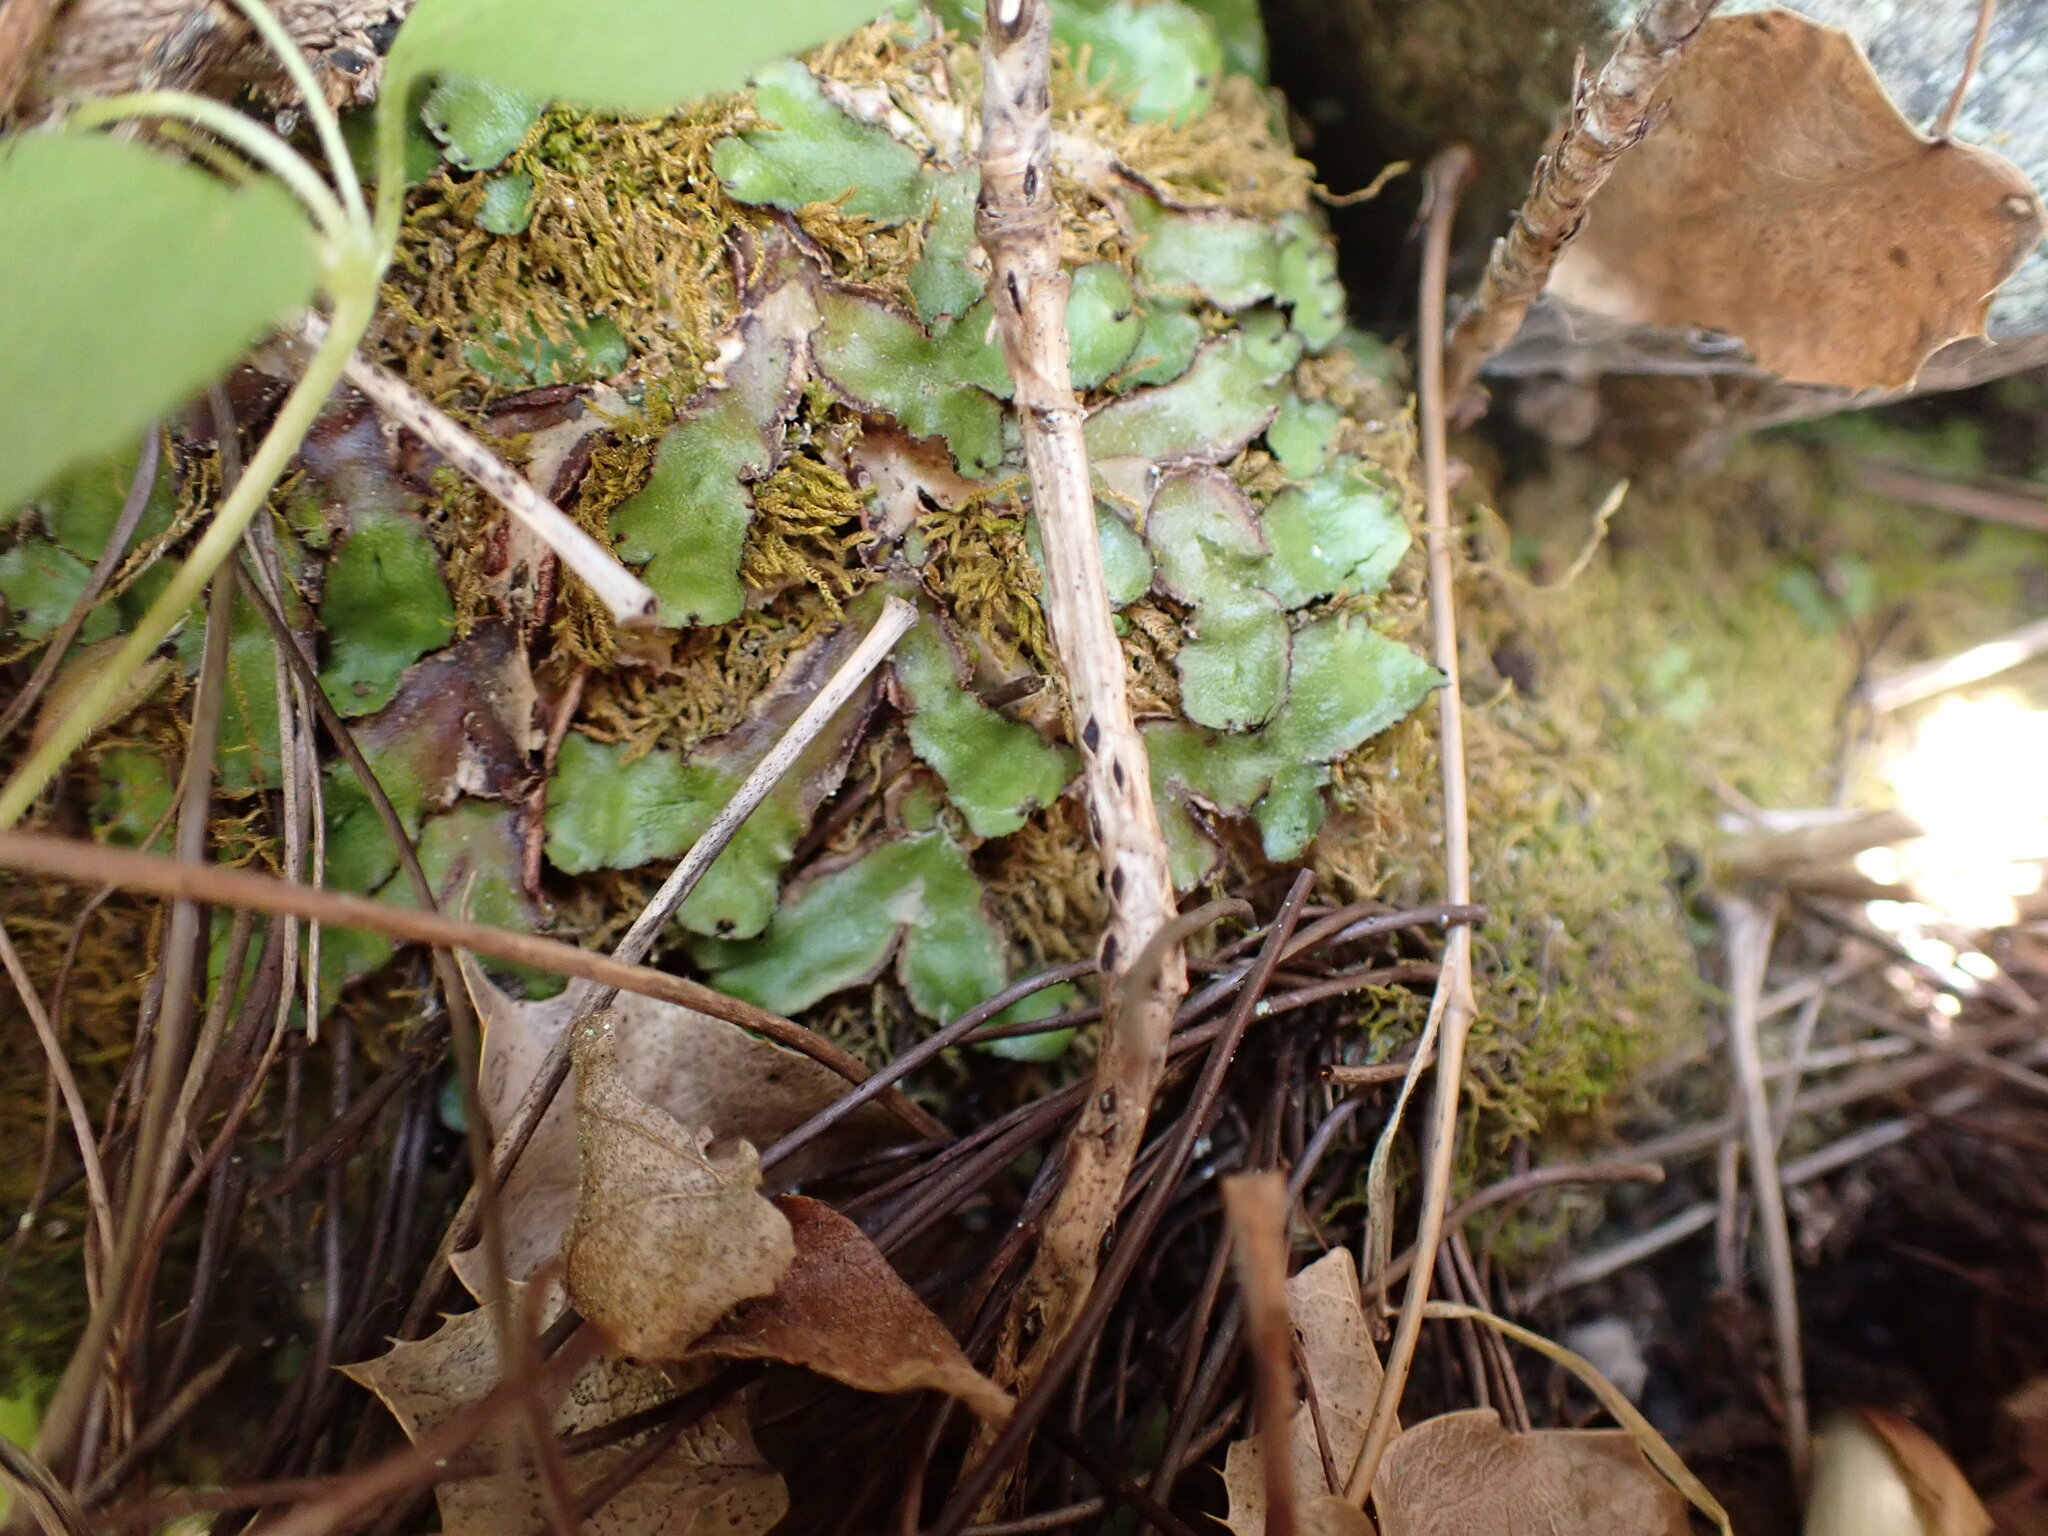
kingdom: Plantae
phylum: Marchantiophyta
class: Marchantiopsida
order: Marchantiales
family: Aytoniaceae
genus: Reboulia
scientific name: Reboulia hemisphaerica
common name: Purple-margined liverwort
